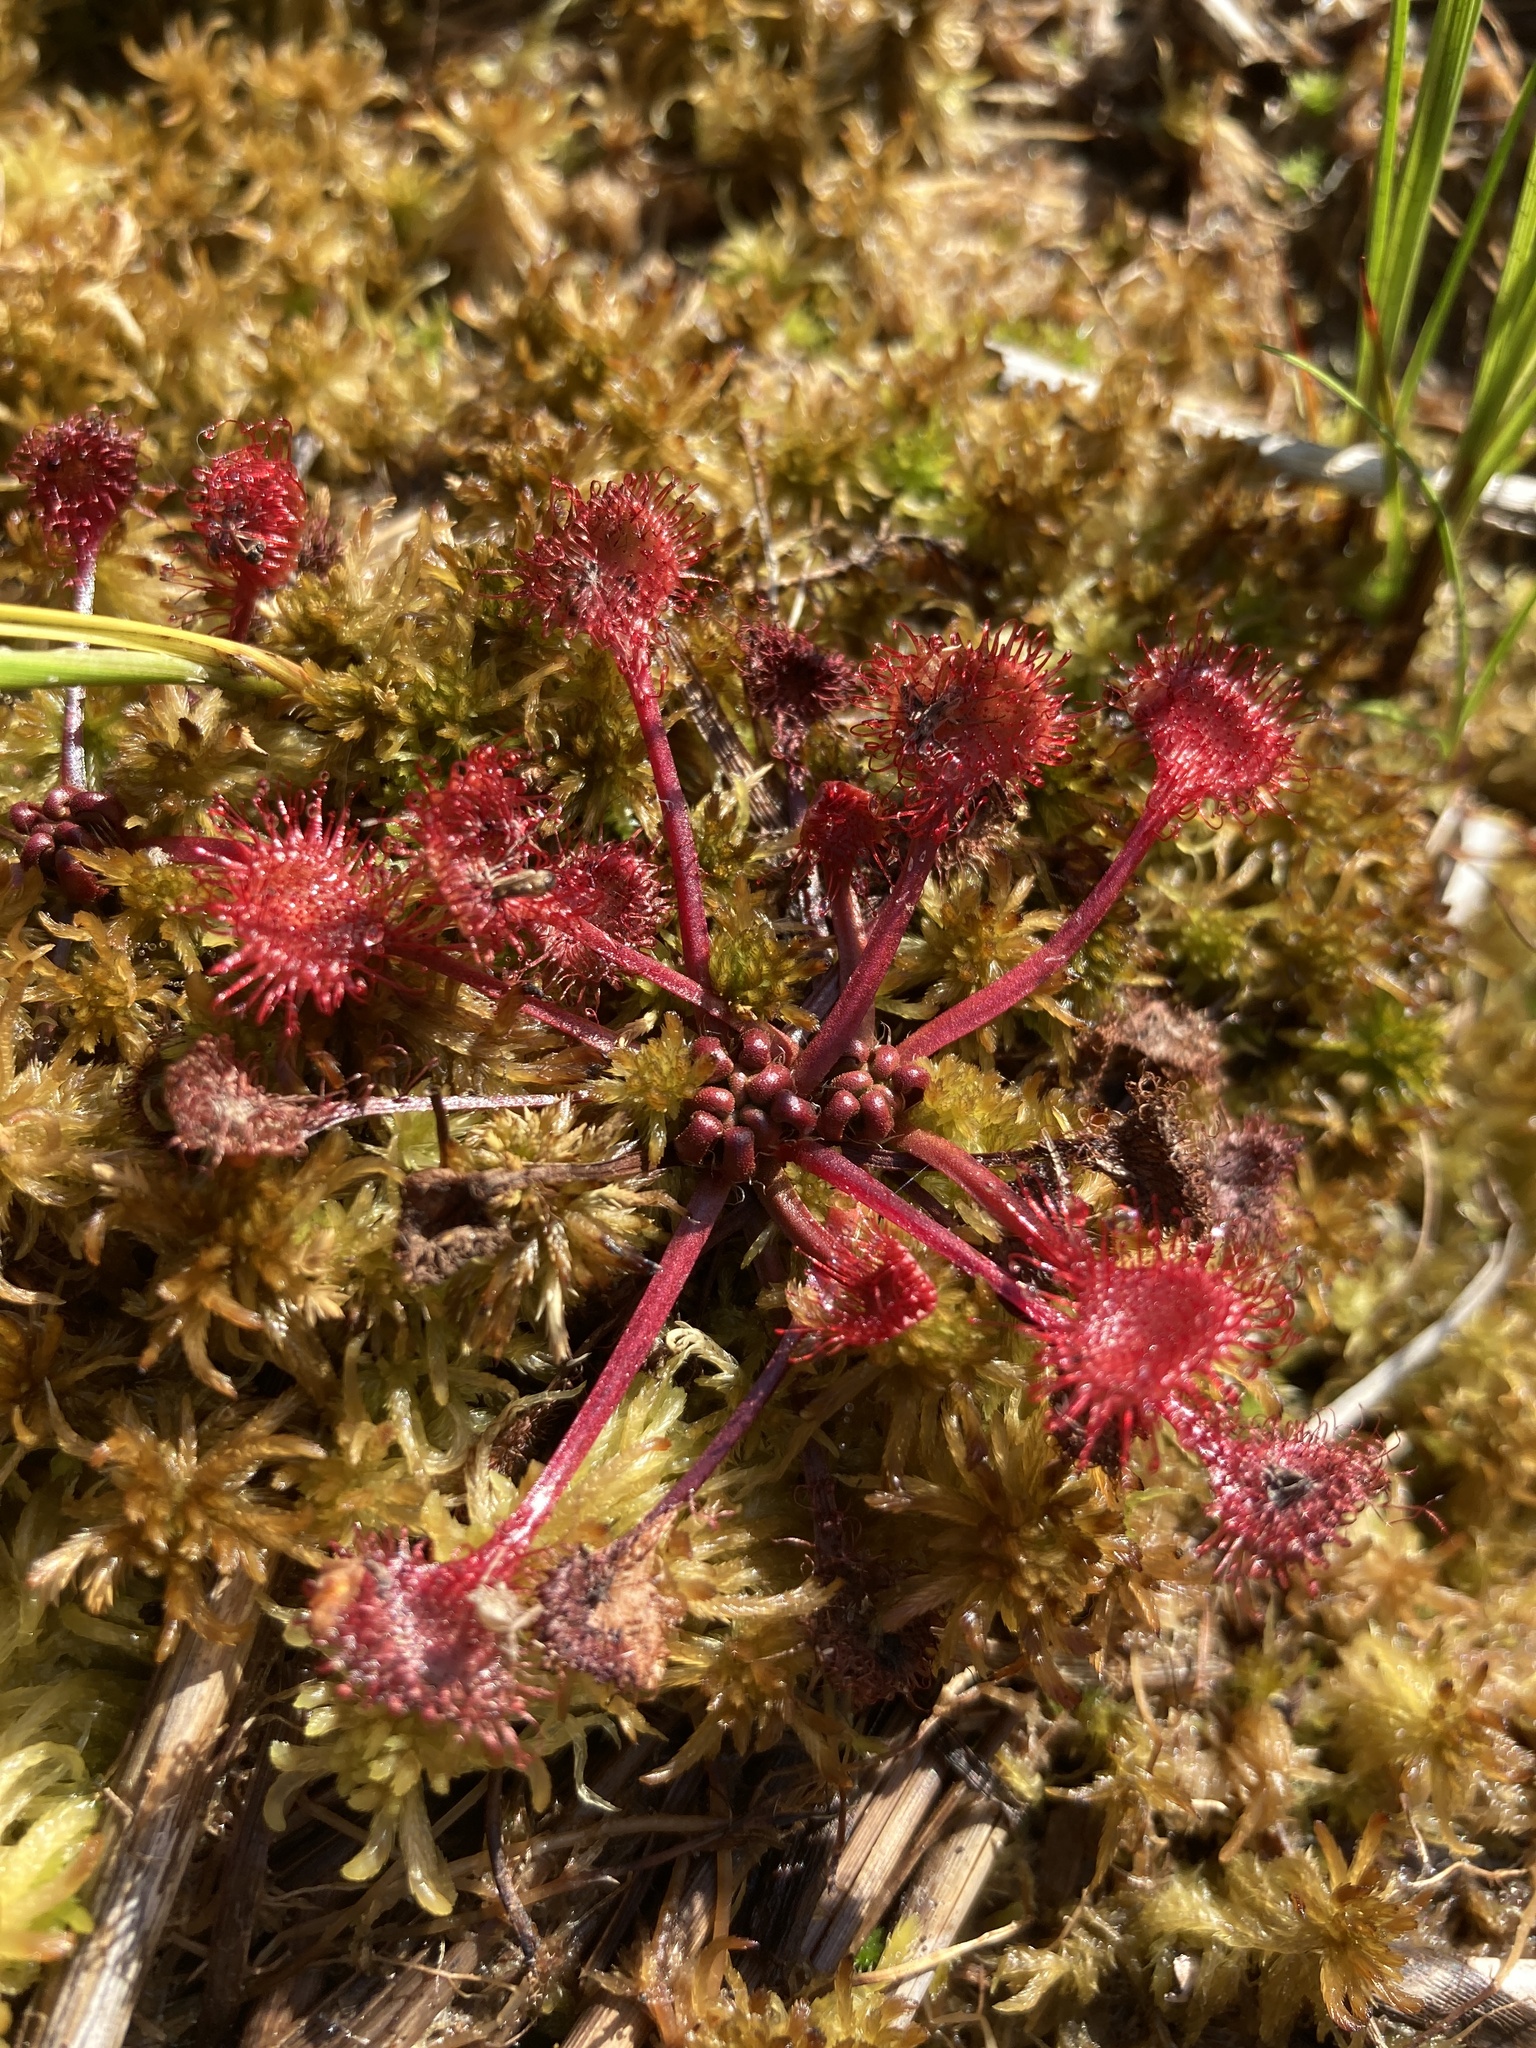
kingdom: Plantae
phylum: Tracheophyta
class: Magnoliopsida
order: Caryophyllales
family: Droseraceae
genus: Drosera
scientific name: Drosera rotundifolia
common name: Round-leaved sundew
